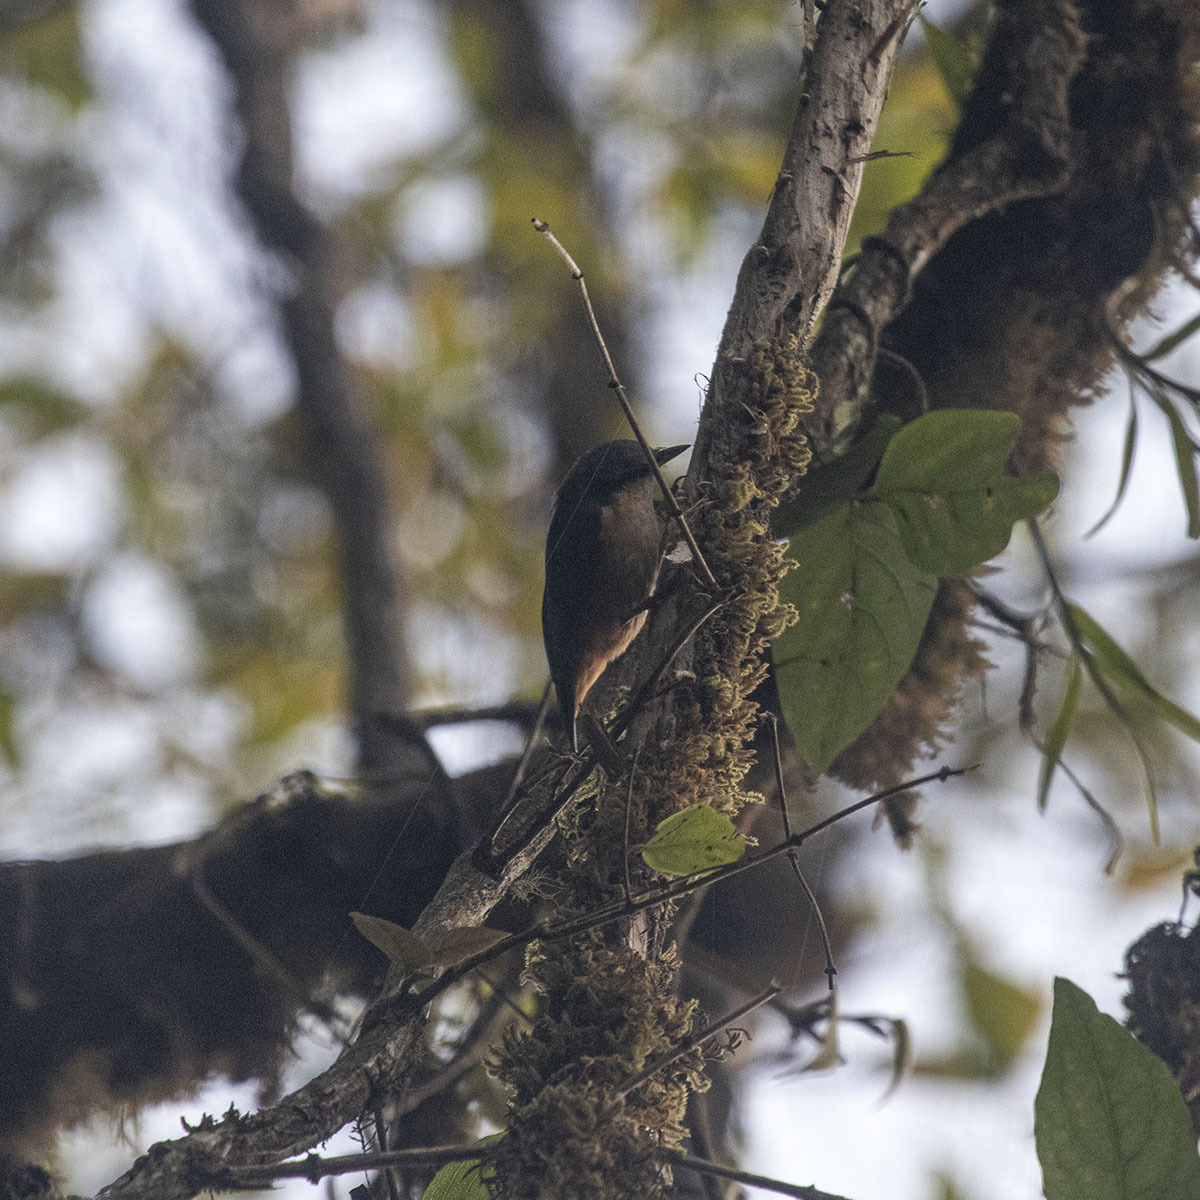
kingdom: Animalia
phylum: Chordata
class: Aves
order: Passeriformes
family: Sittidae
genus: Sitta
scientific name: Sitta himalayensis
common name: White-tailed nuthatch
